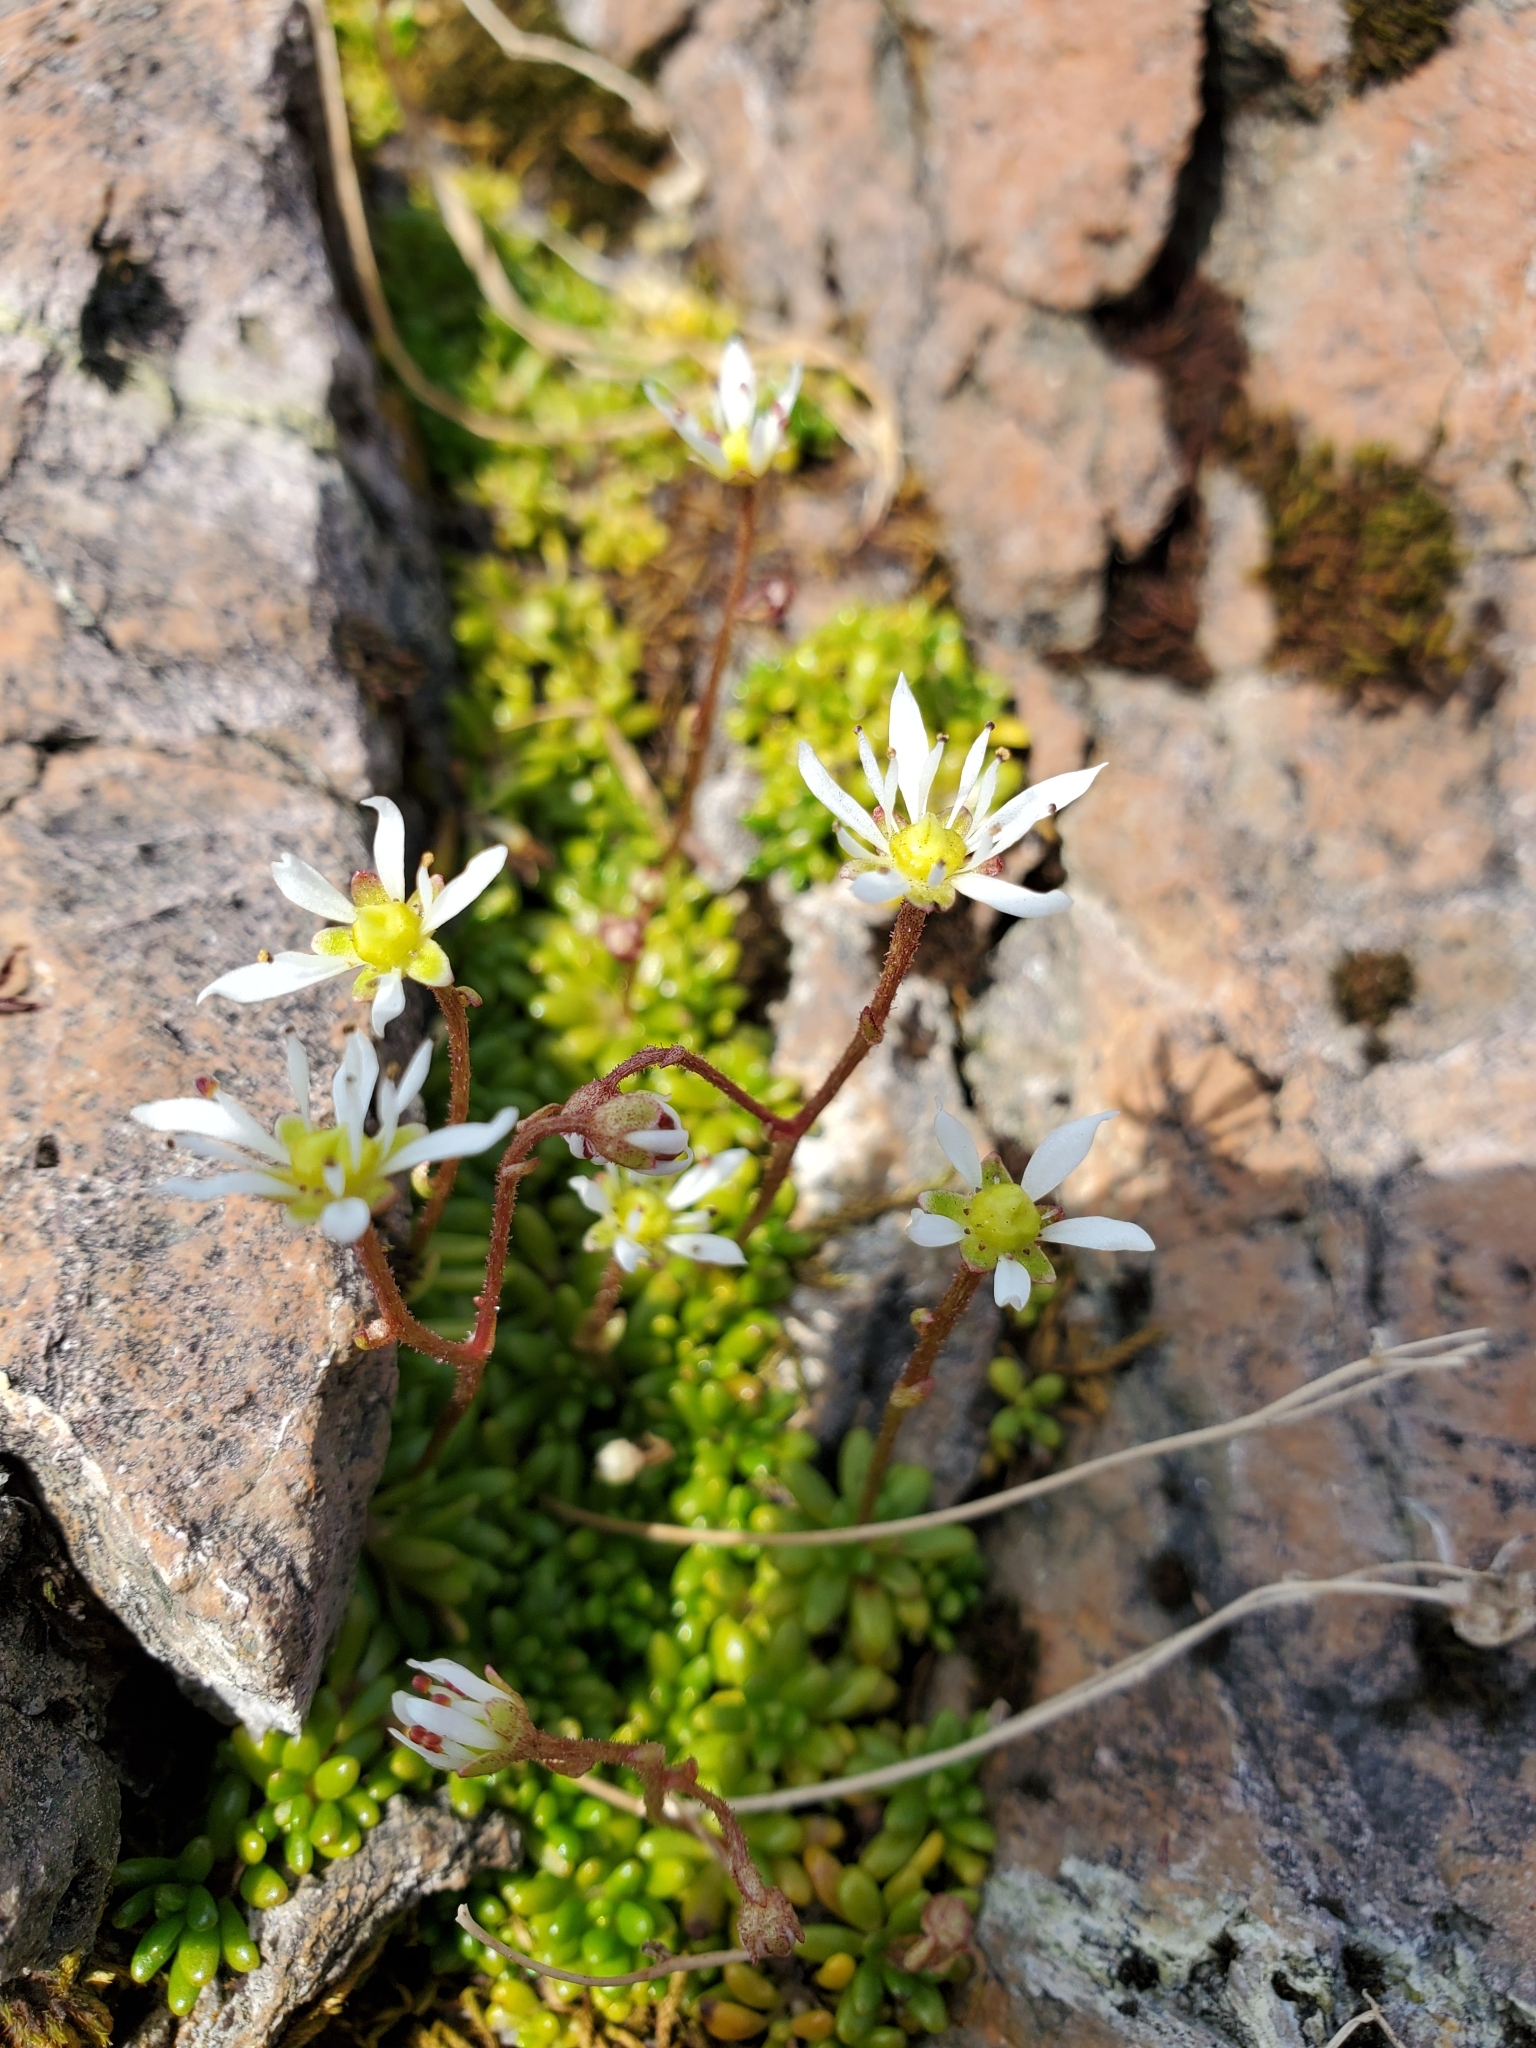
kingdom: Plantae
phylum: Tracheophyta
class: Magnoliopsida
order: Saxifragales
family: Saxifragaceae
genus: Micranthes
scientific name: Micranthes tolmiei
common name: Tolmie's saxifrage
